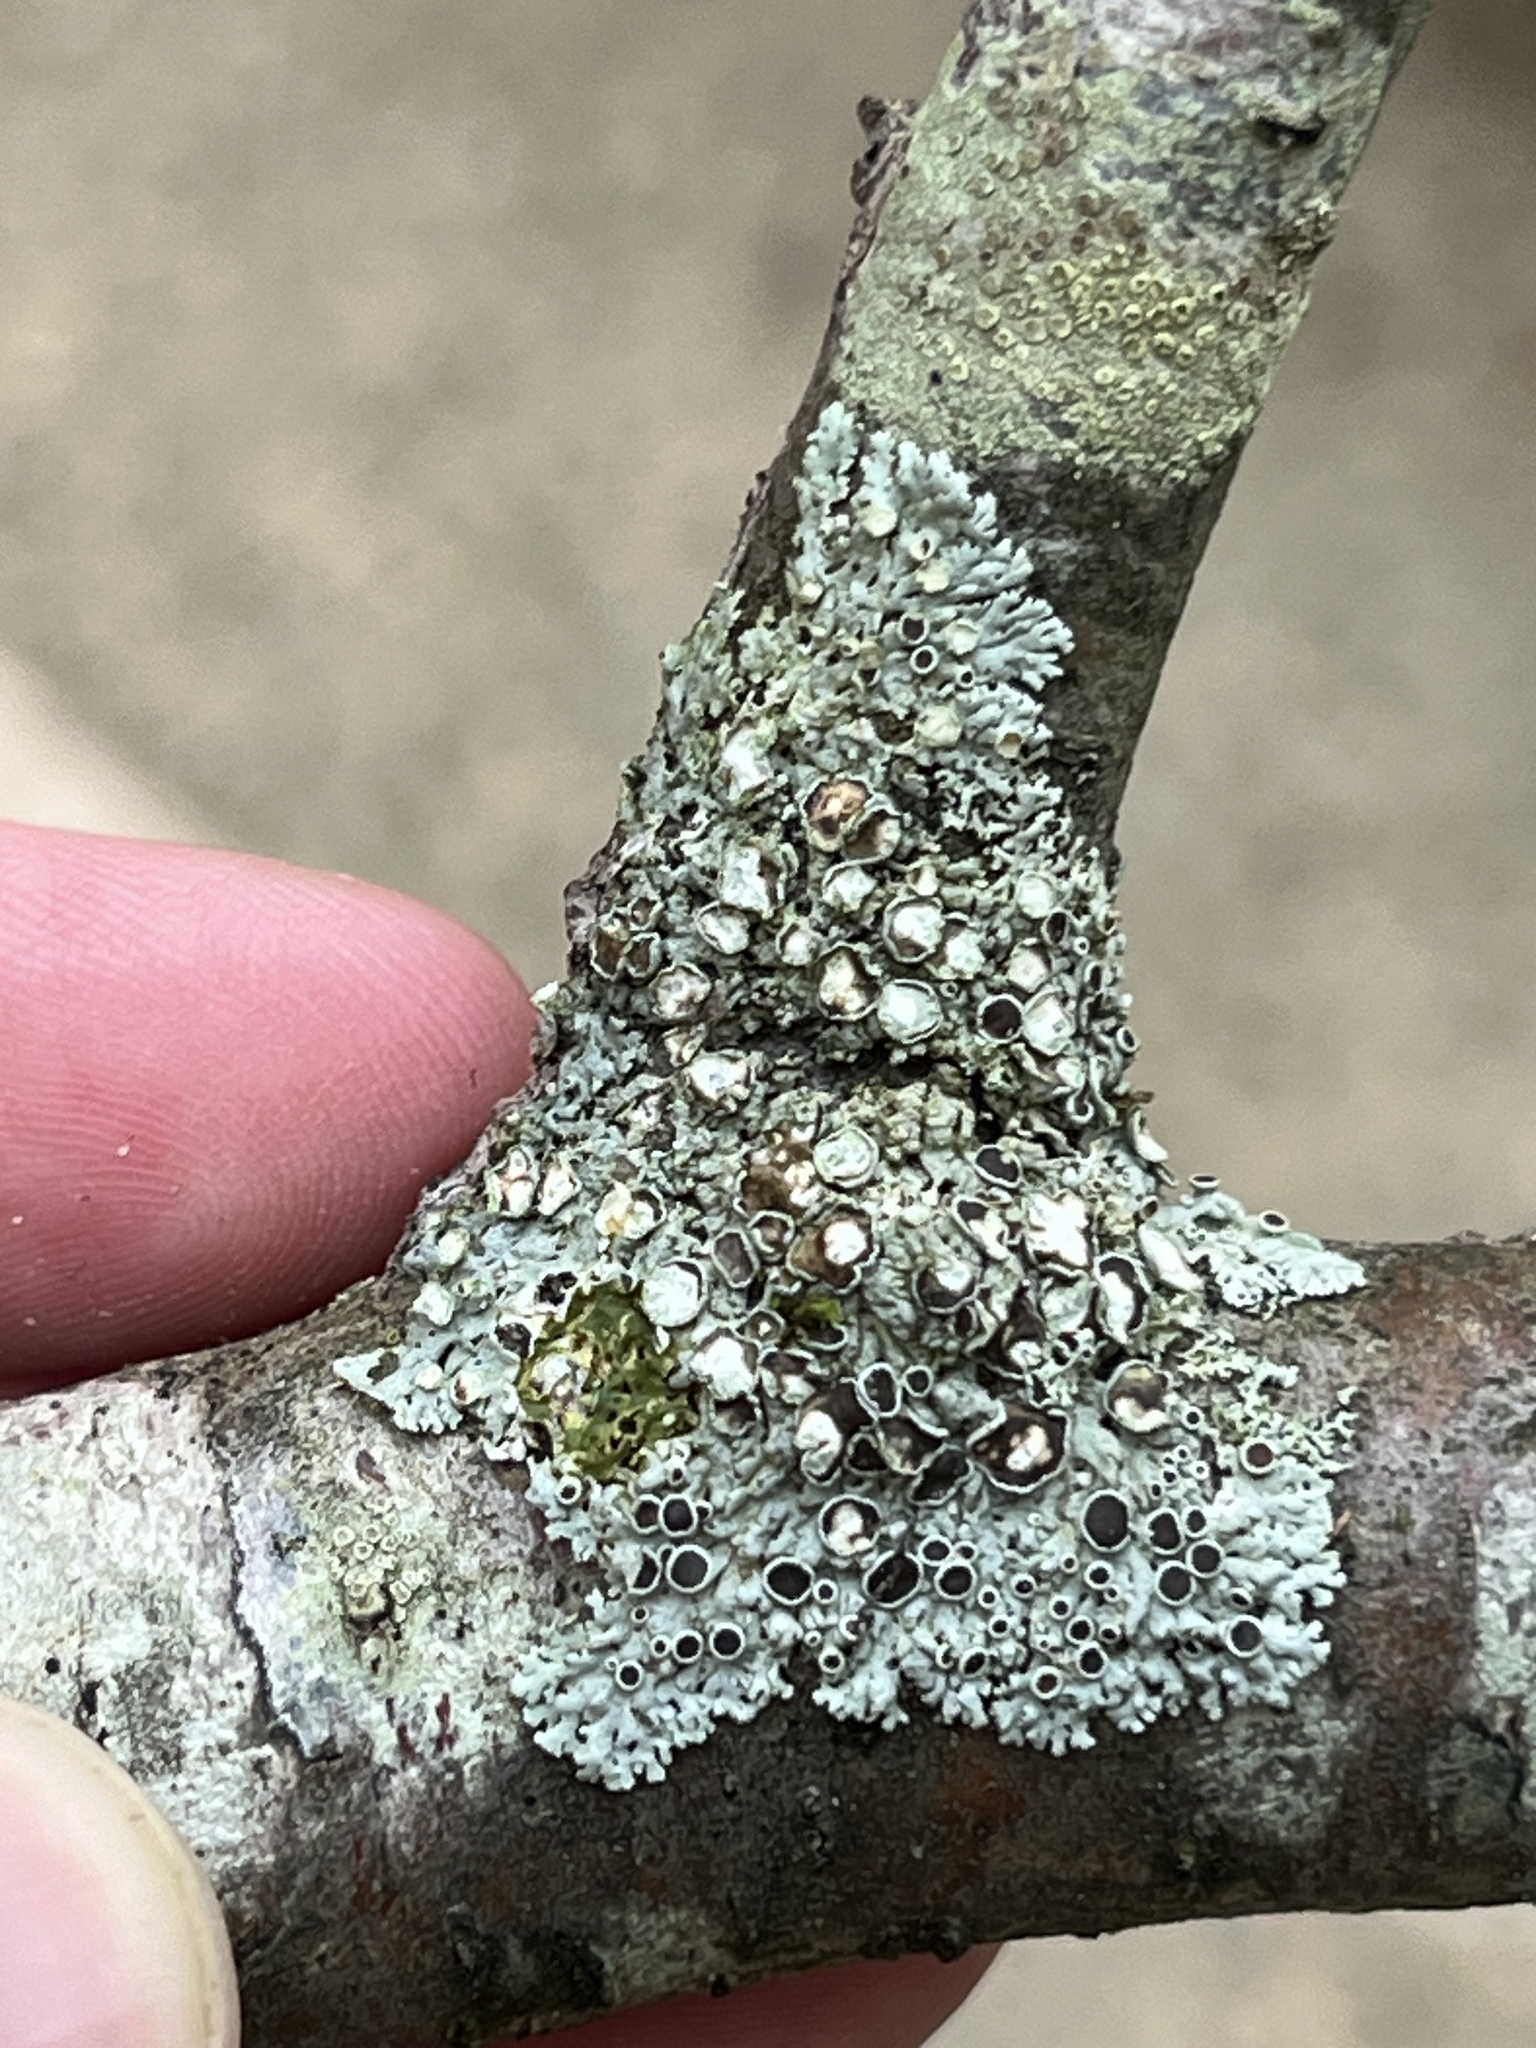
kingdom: Fungi
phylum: Ascomycota
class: Lecanoromycetes
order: Caliciales
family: Physciaceae
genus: Physcia
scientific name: Physcia stellaris
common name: Star rosette lichen
